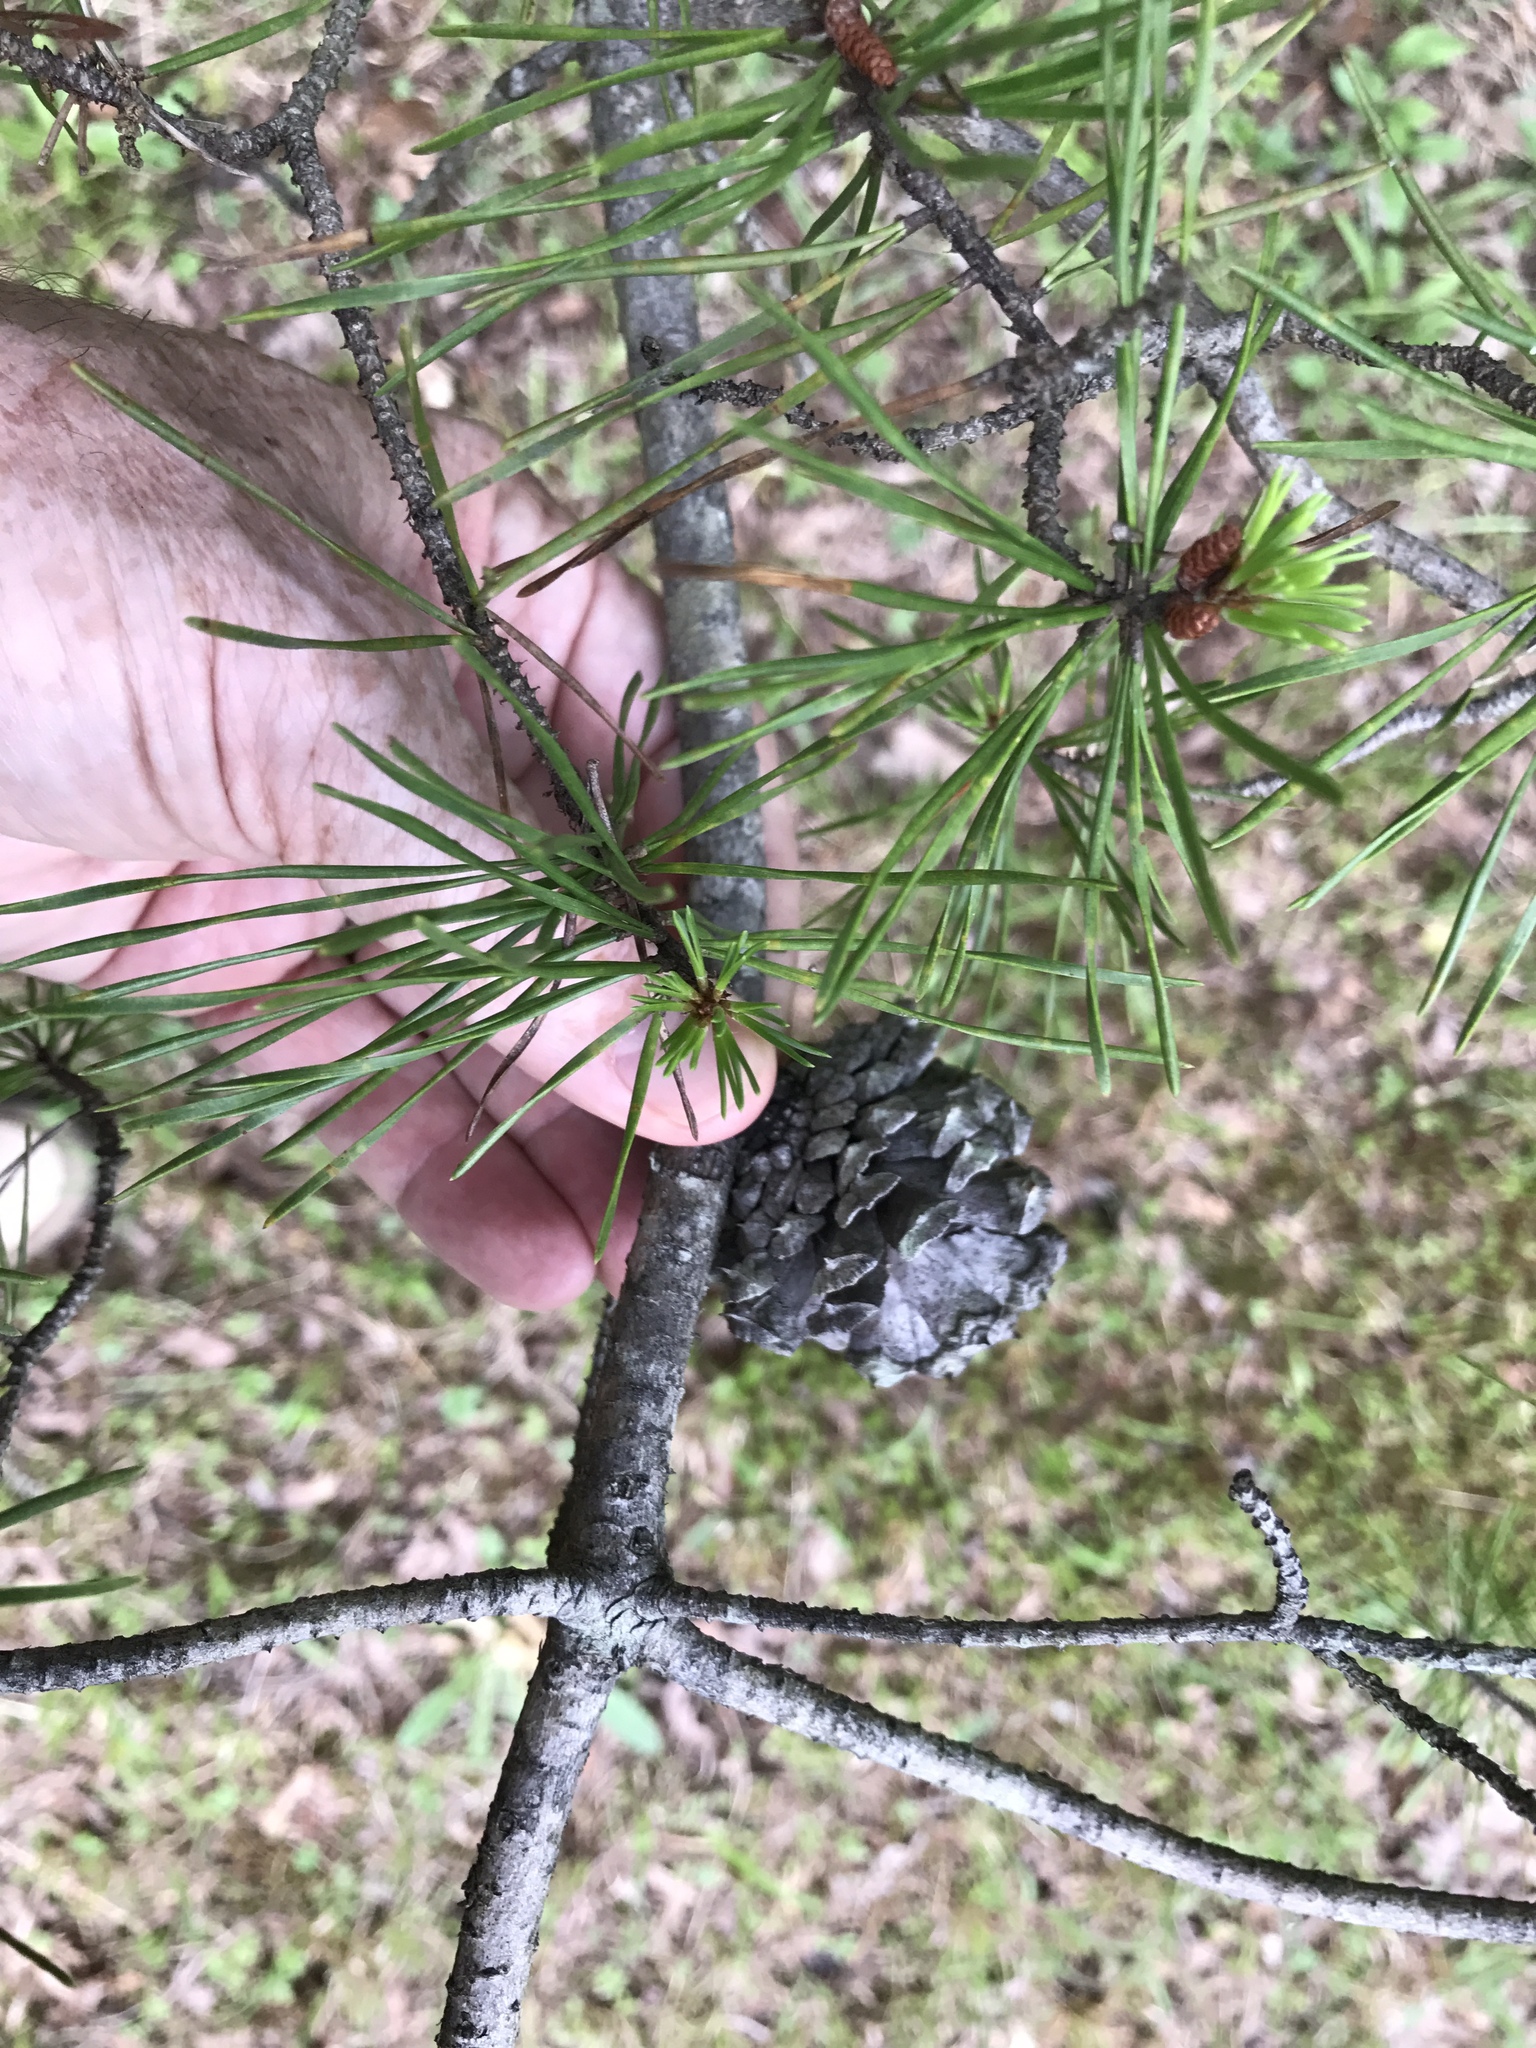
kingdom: Plantae
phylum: Tracheophyta
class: Pinopsida
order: Pinales
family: Pinaceae
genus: Pinus
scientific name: Pinus virginiana
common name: Scrub pine
